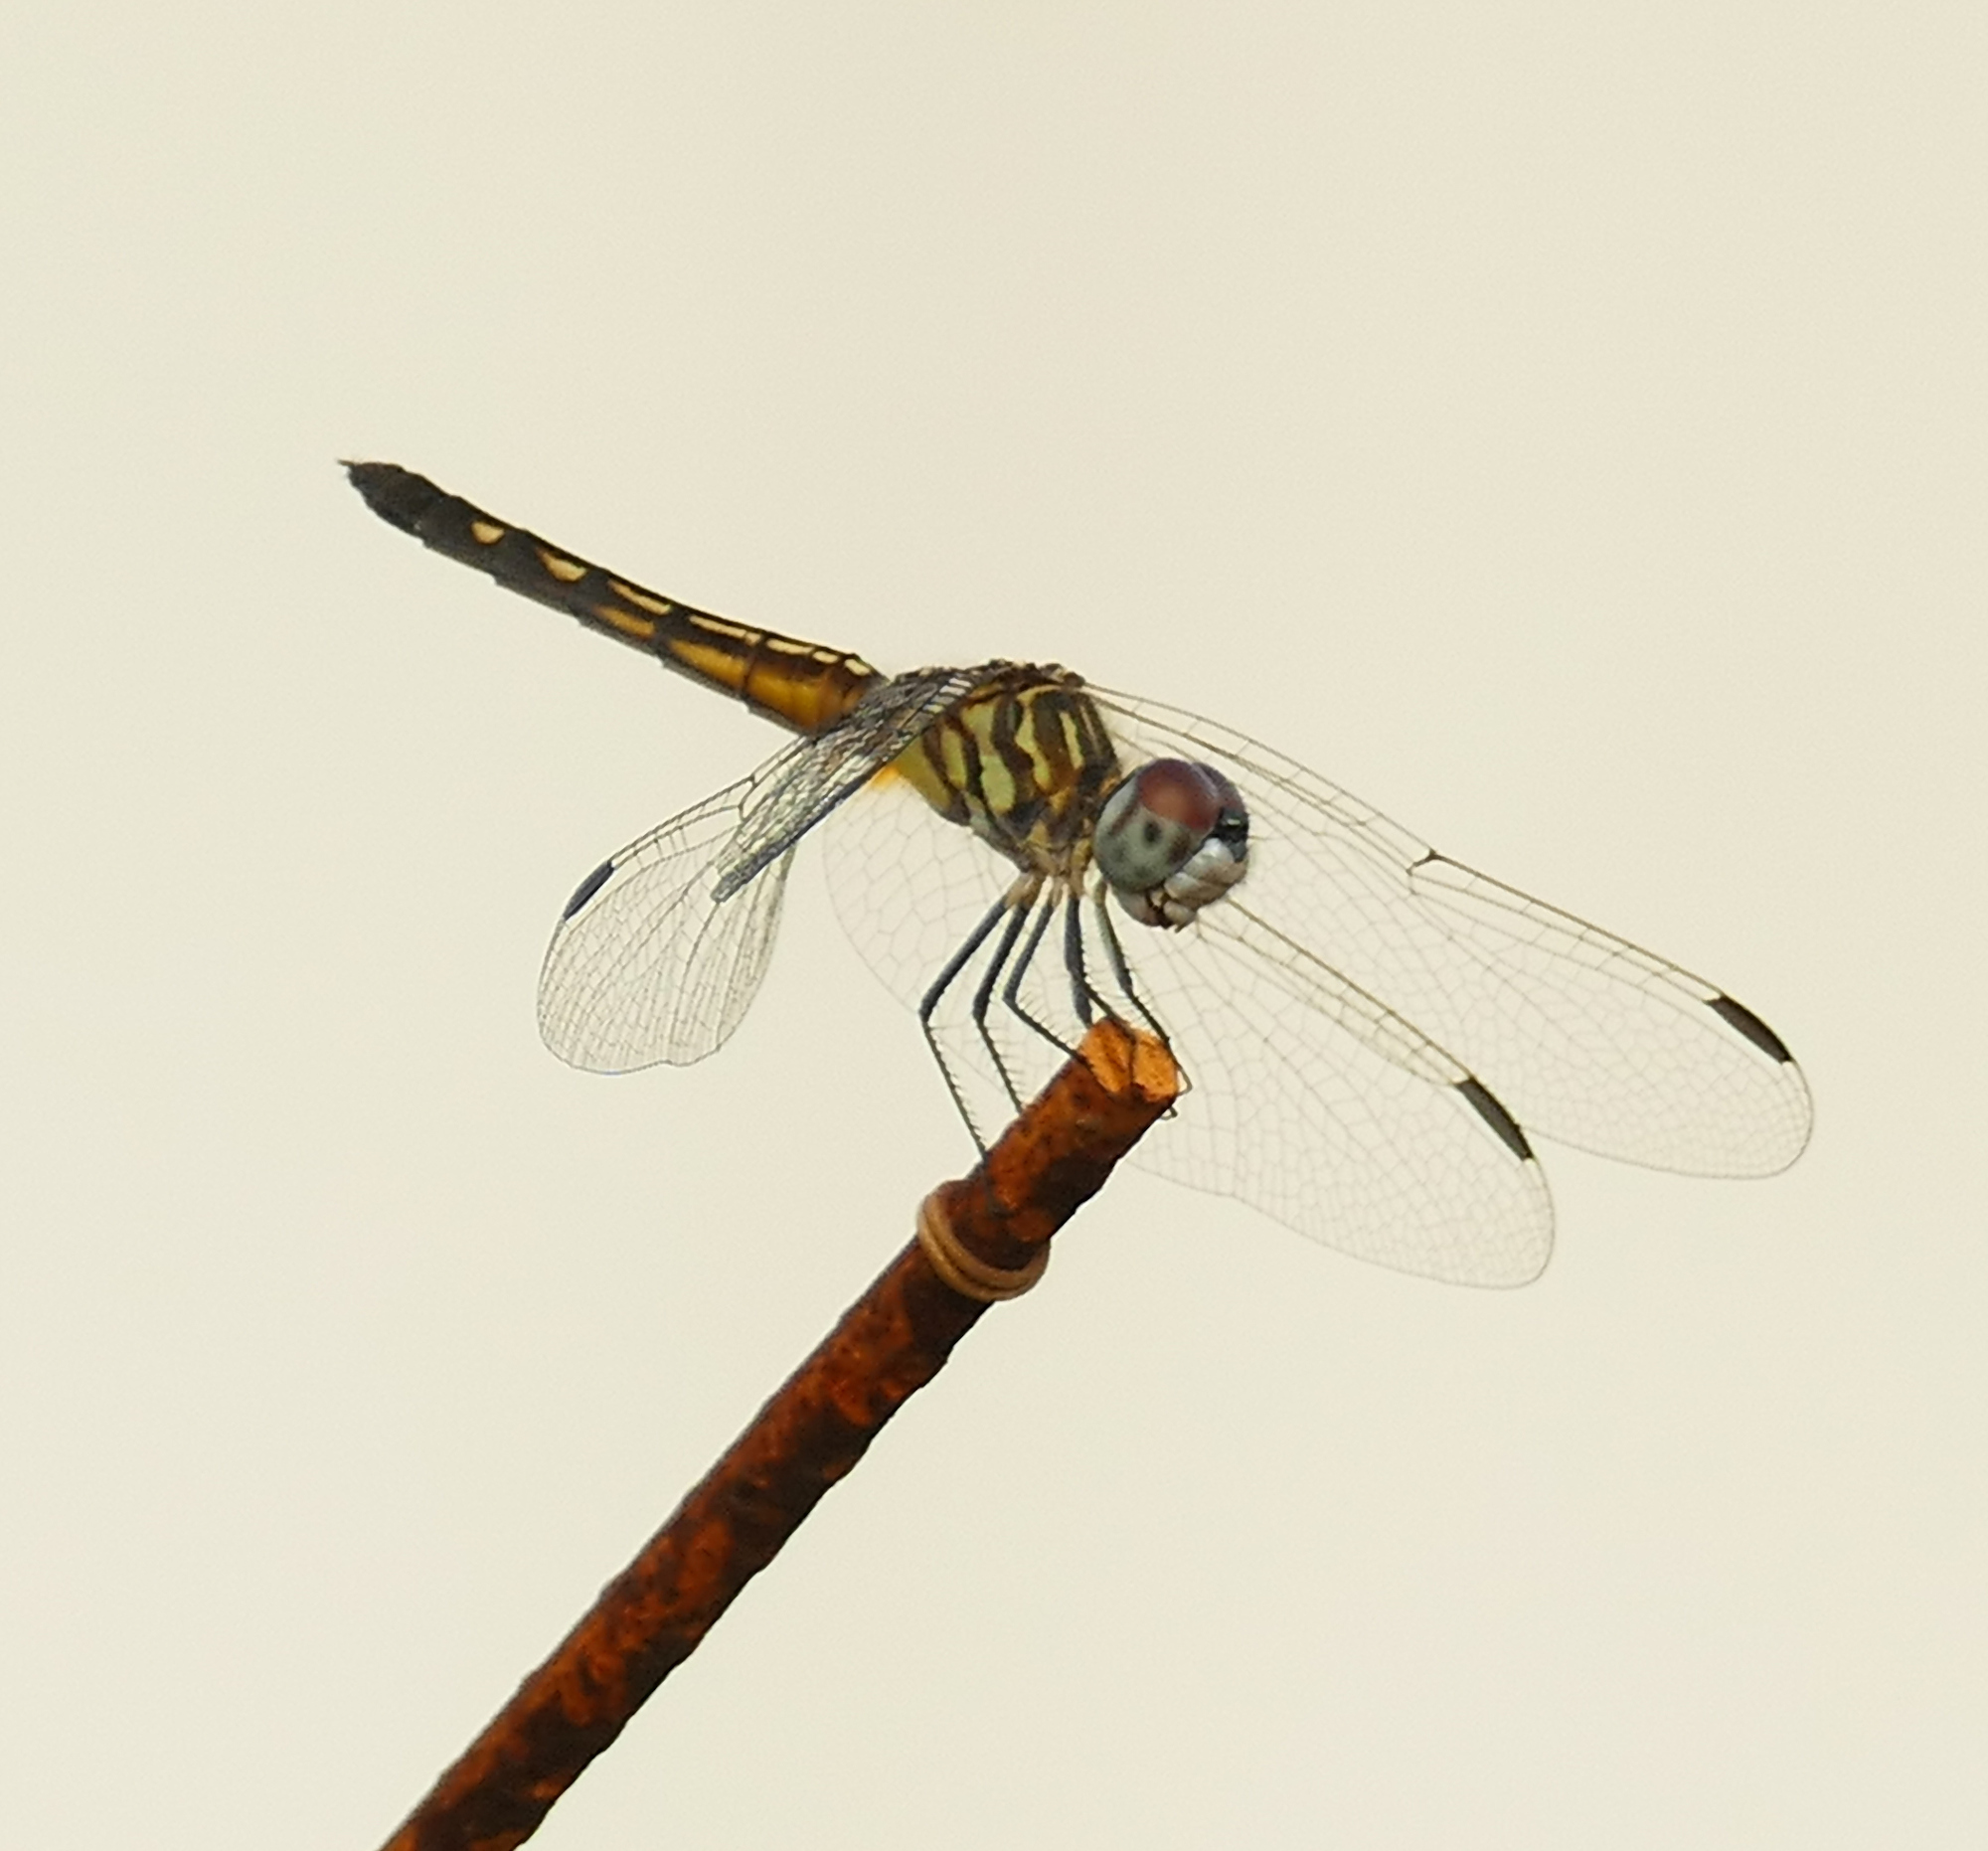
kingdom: Animalia
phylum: Arthropoda
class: Insecta
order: Odonata
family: Libellulidae
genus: Pachydiplax
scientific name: Pachydiplax longipennis
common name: Blue dasher
